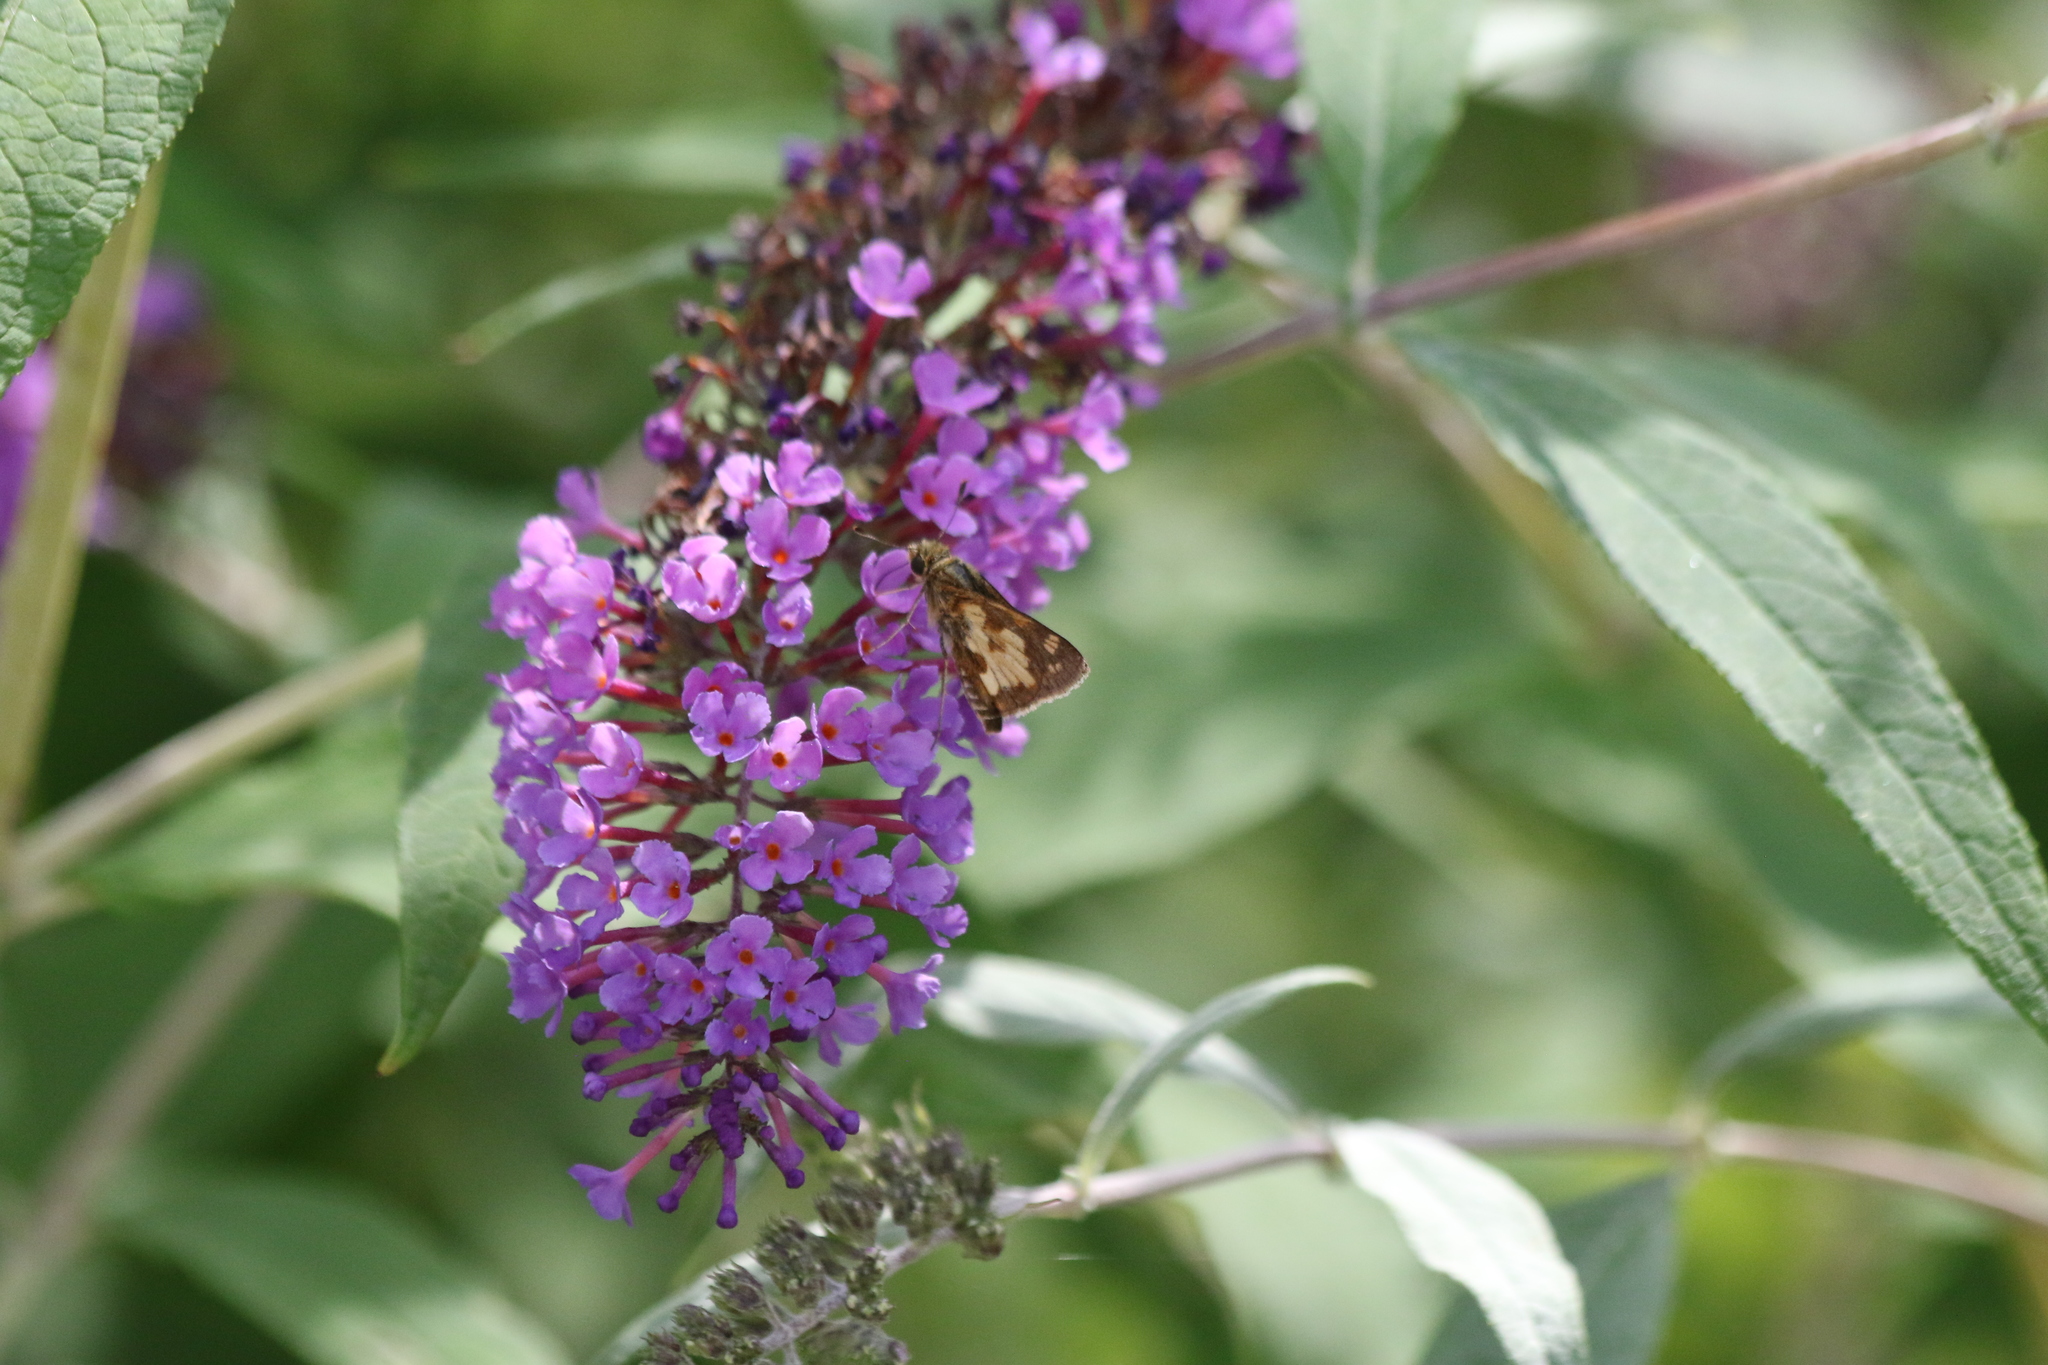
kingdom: Animalia
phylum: Arthropoda
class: Insecta
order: Lepidoptera
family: Hesperiidae
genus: Polites
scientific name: Polites coras
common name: Peck's skipper
